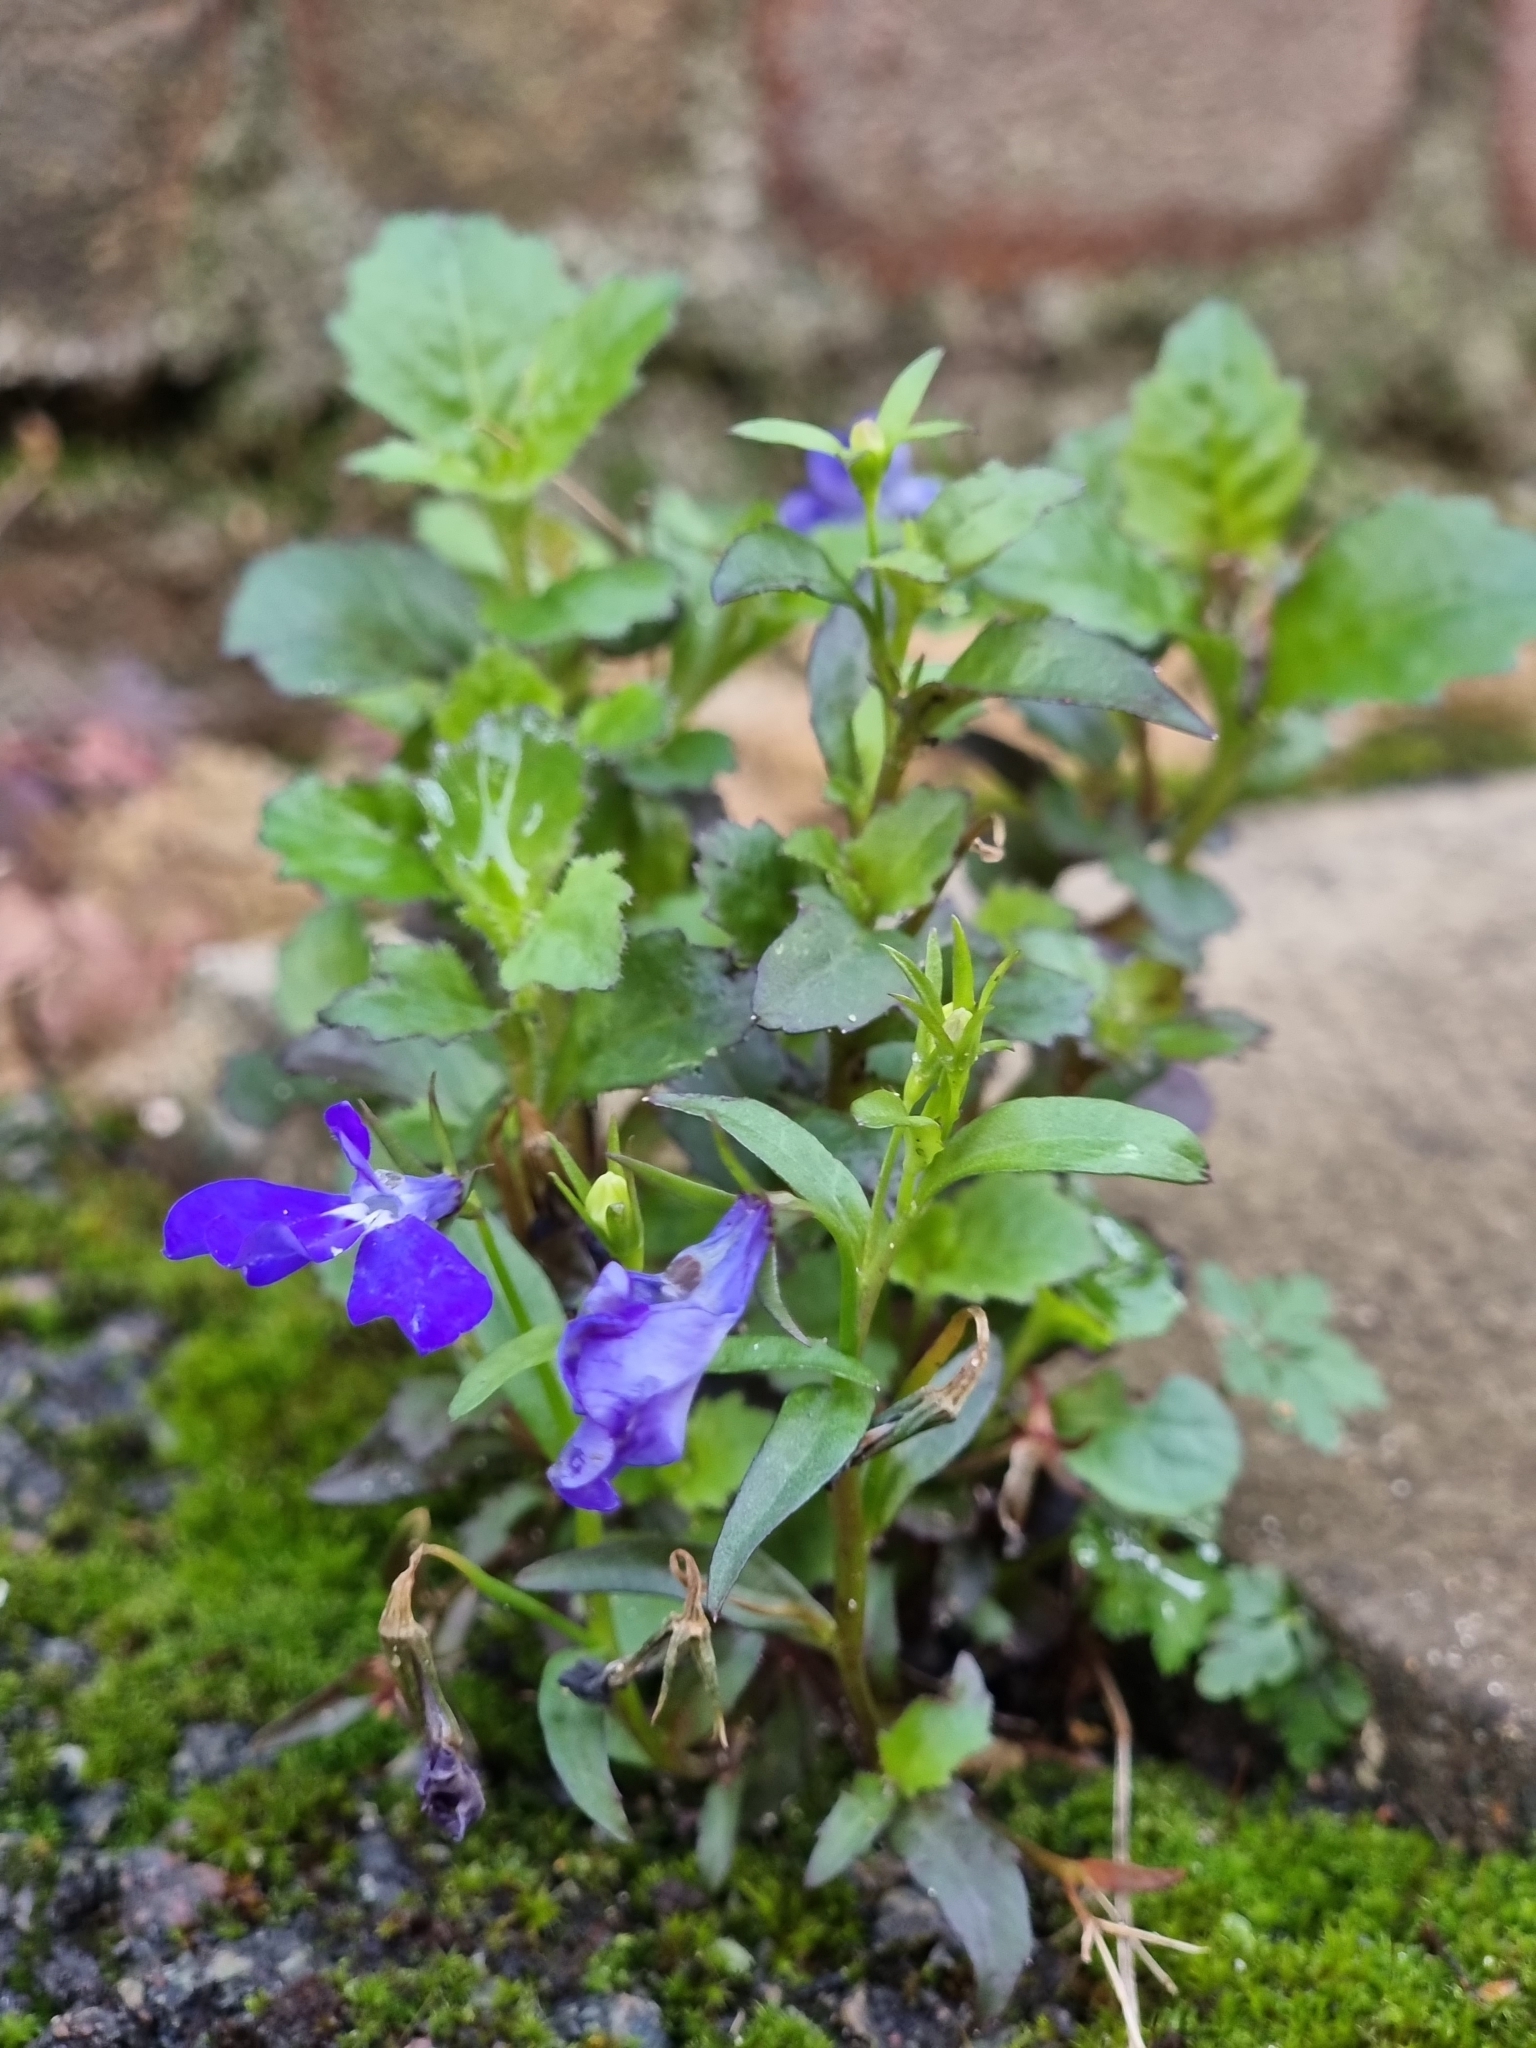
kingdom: Plantae
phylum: Tracheophyta
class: Magnoliopsida
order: Asterales
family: Campanulaceae
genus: Lobelia
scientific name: Lobelia erinus
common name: Edging lobelia
